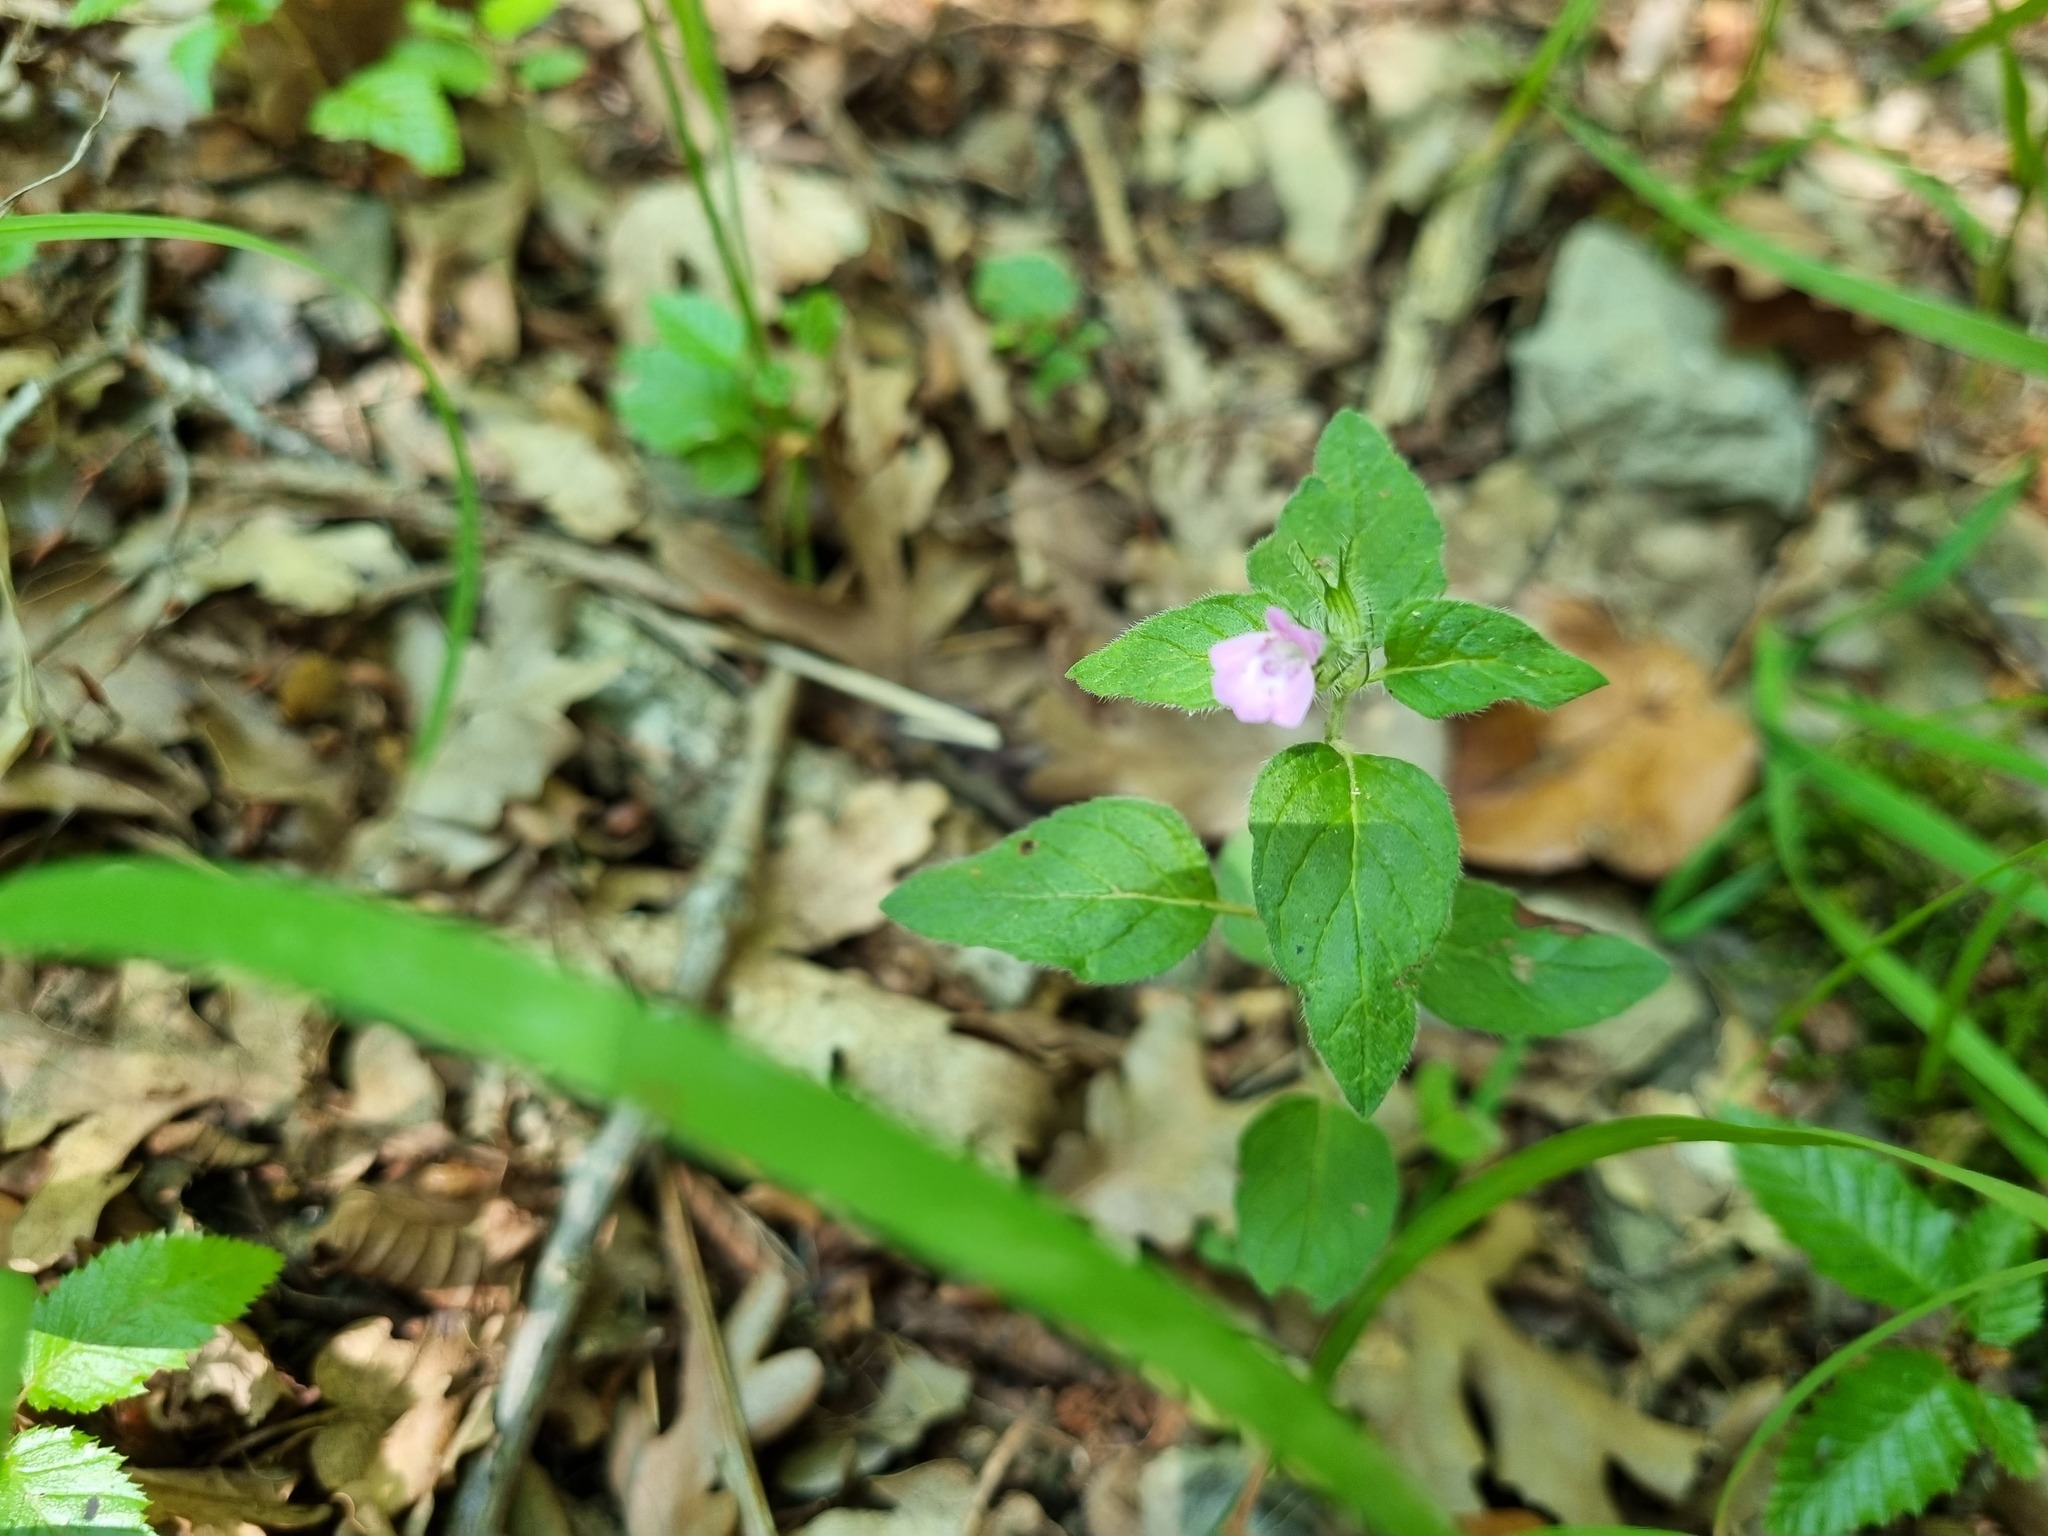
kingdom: Plantae
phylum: Tracheophyta
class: Magnoliopsida
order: Lamiales
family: Lamiaceae
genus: Clinopodium
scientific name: Clinopodium caucasicum
